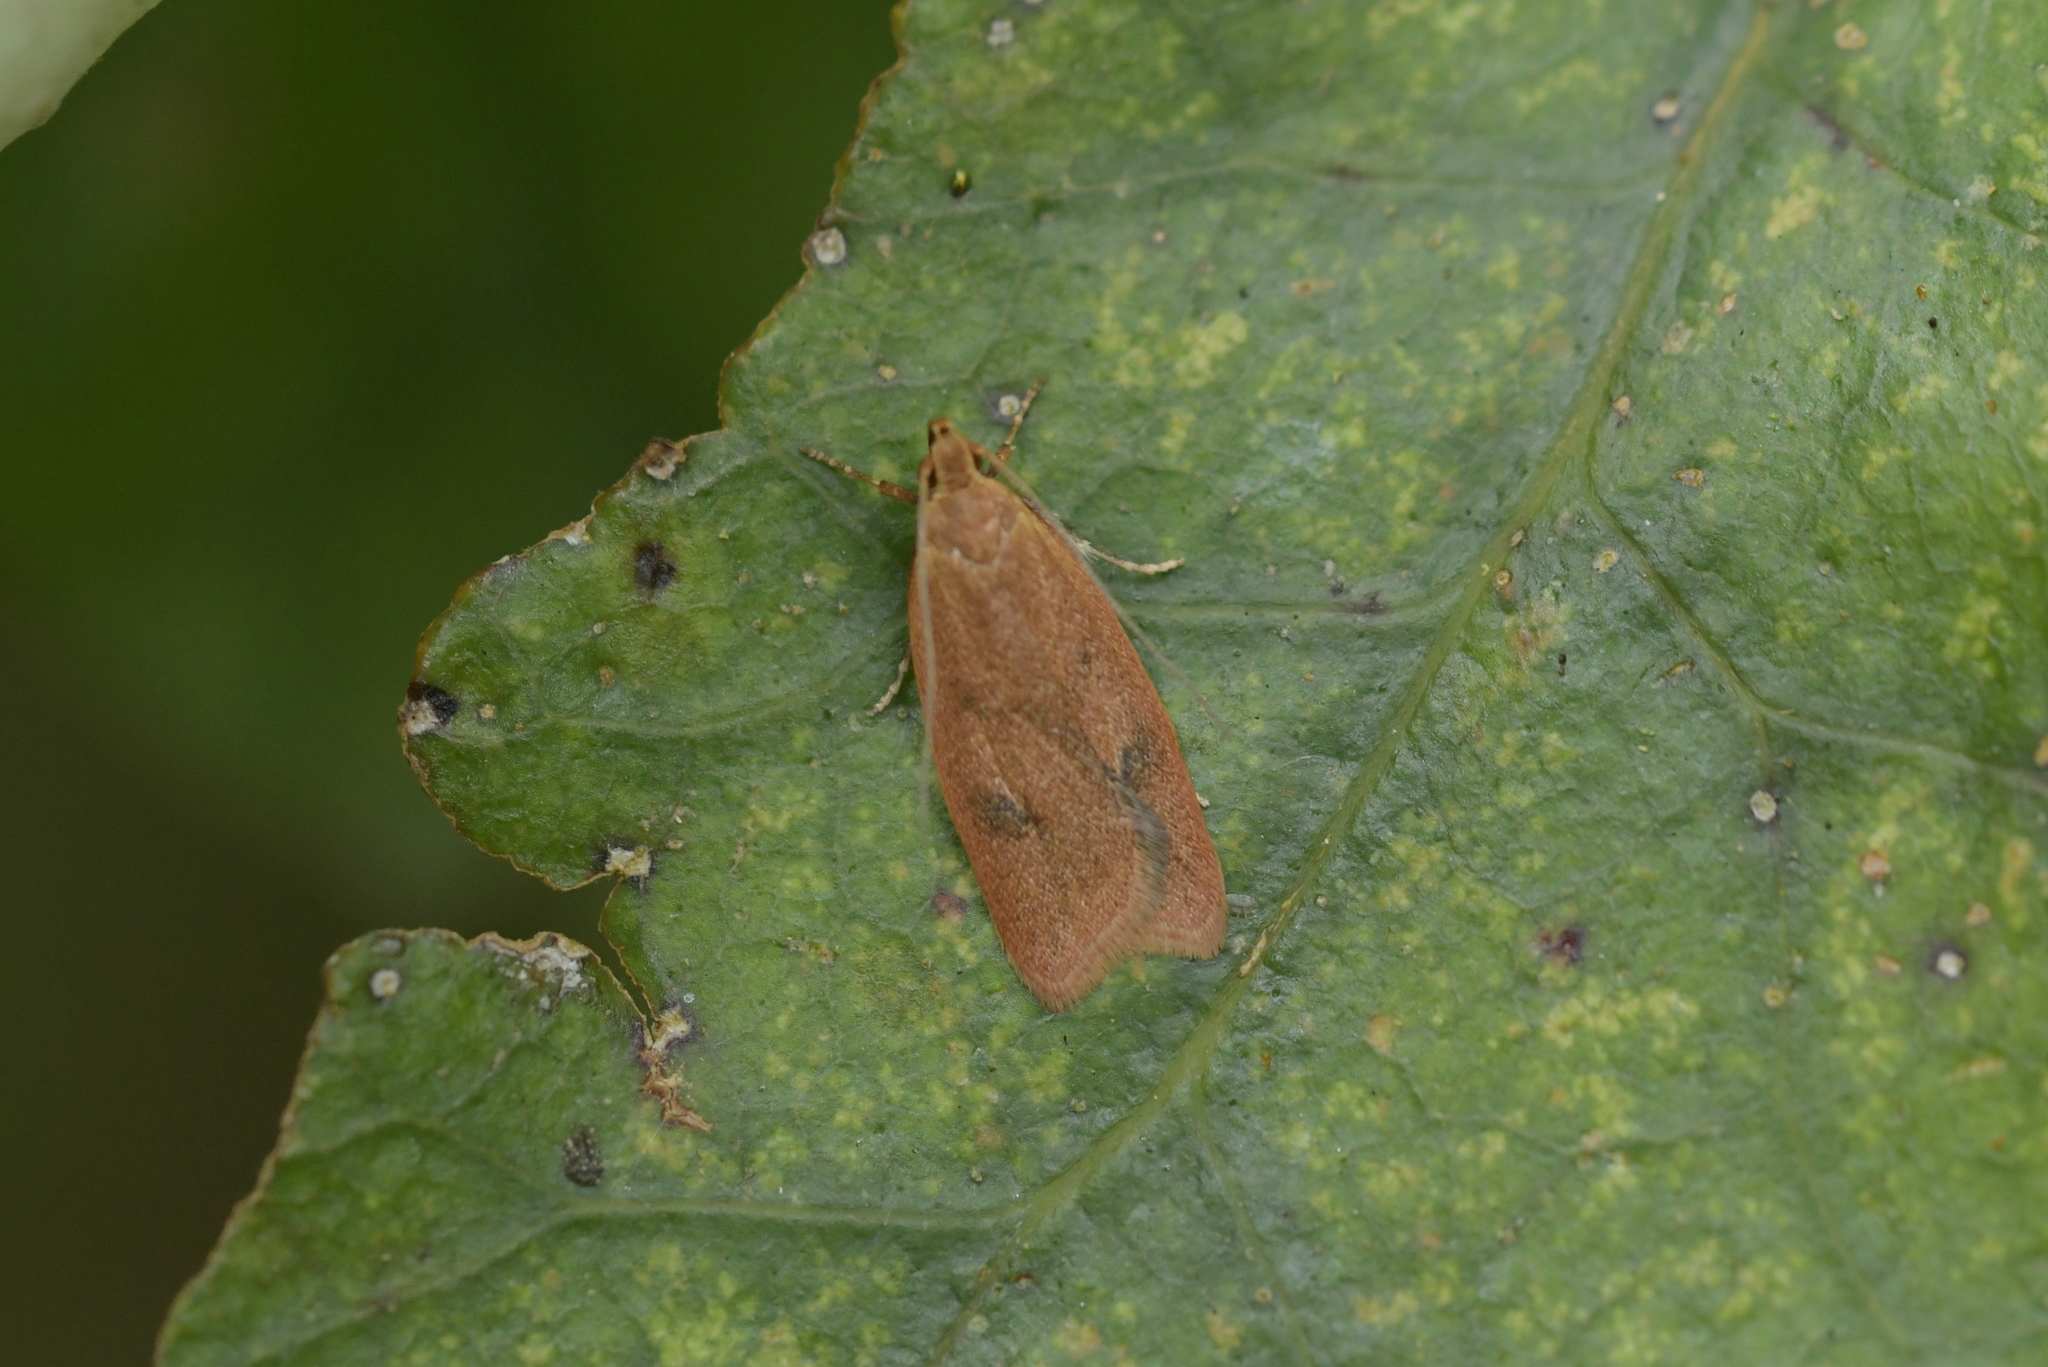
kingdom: Animalia
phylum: Arthropoda
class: Insecta
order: Lepidoptera
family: Oecophoridae
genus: Gymnobathra
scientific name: Gymnobathra sarcoxantha
